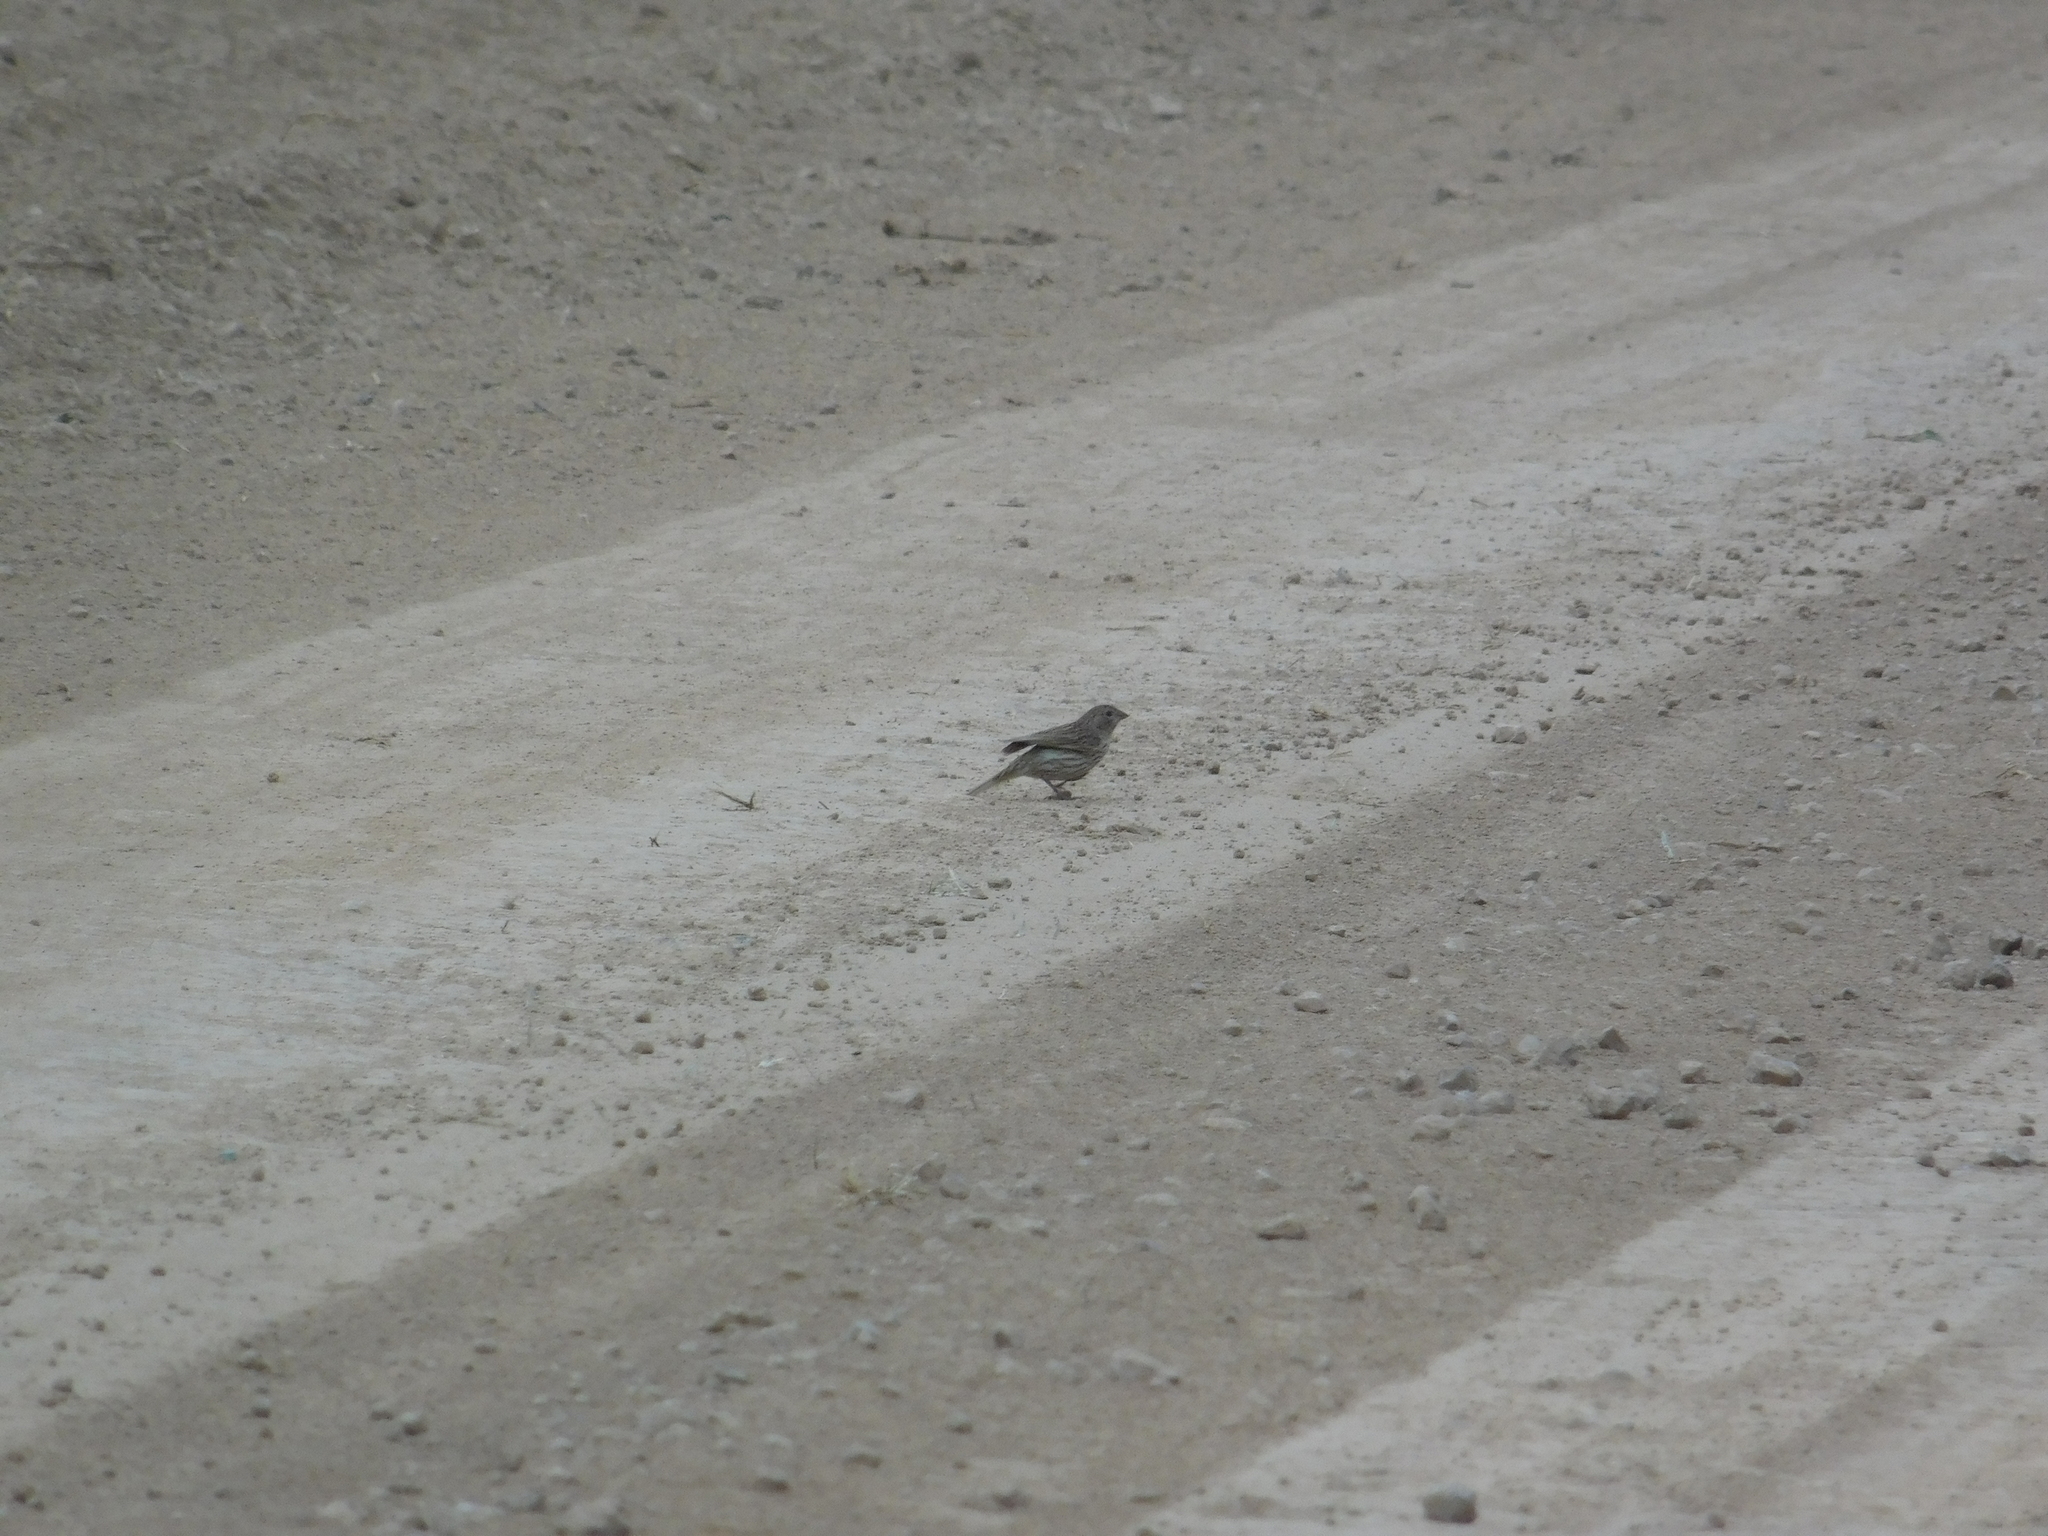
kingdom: Animalia
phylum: Chordata
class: Aves
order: Passeriformes
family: Thraupidae
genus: Sicalis
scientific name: Sicalis flaveola
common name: Saffron finch
